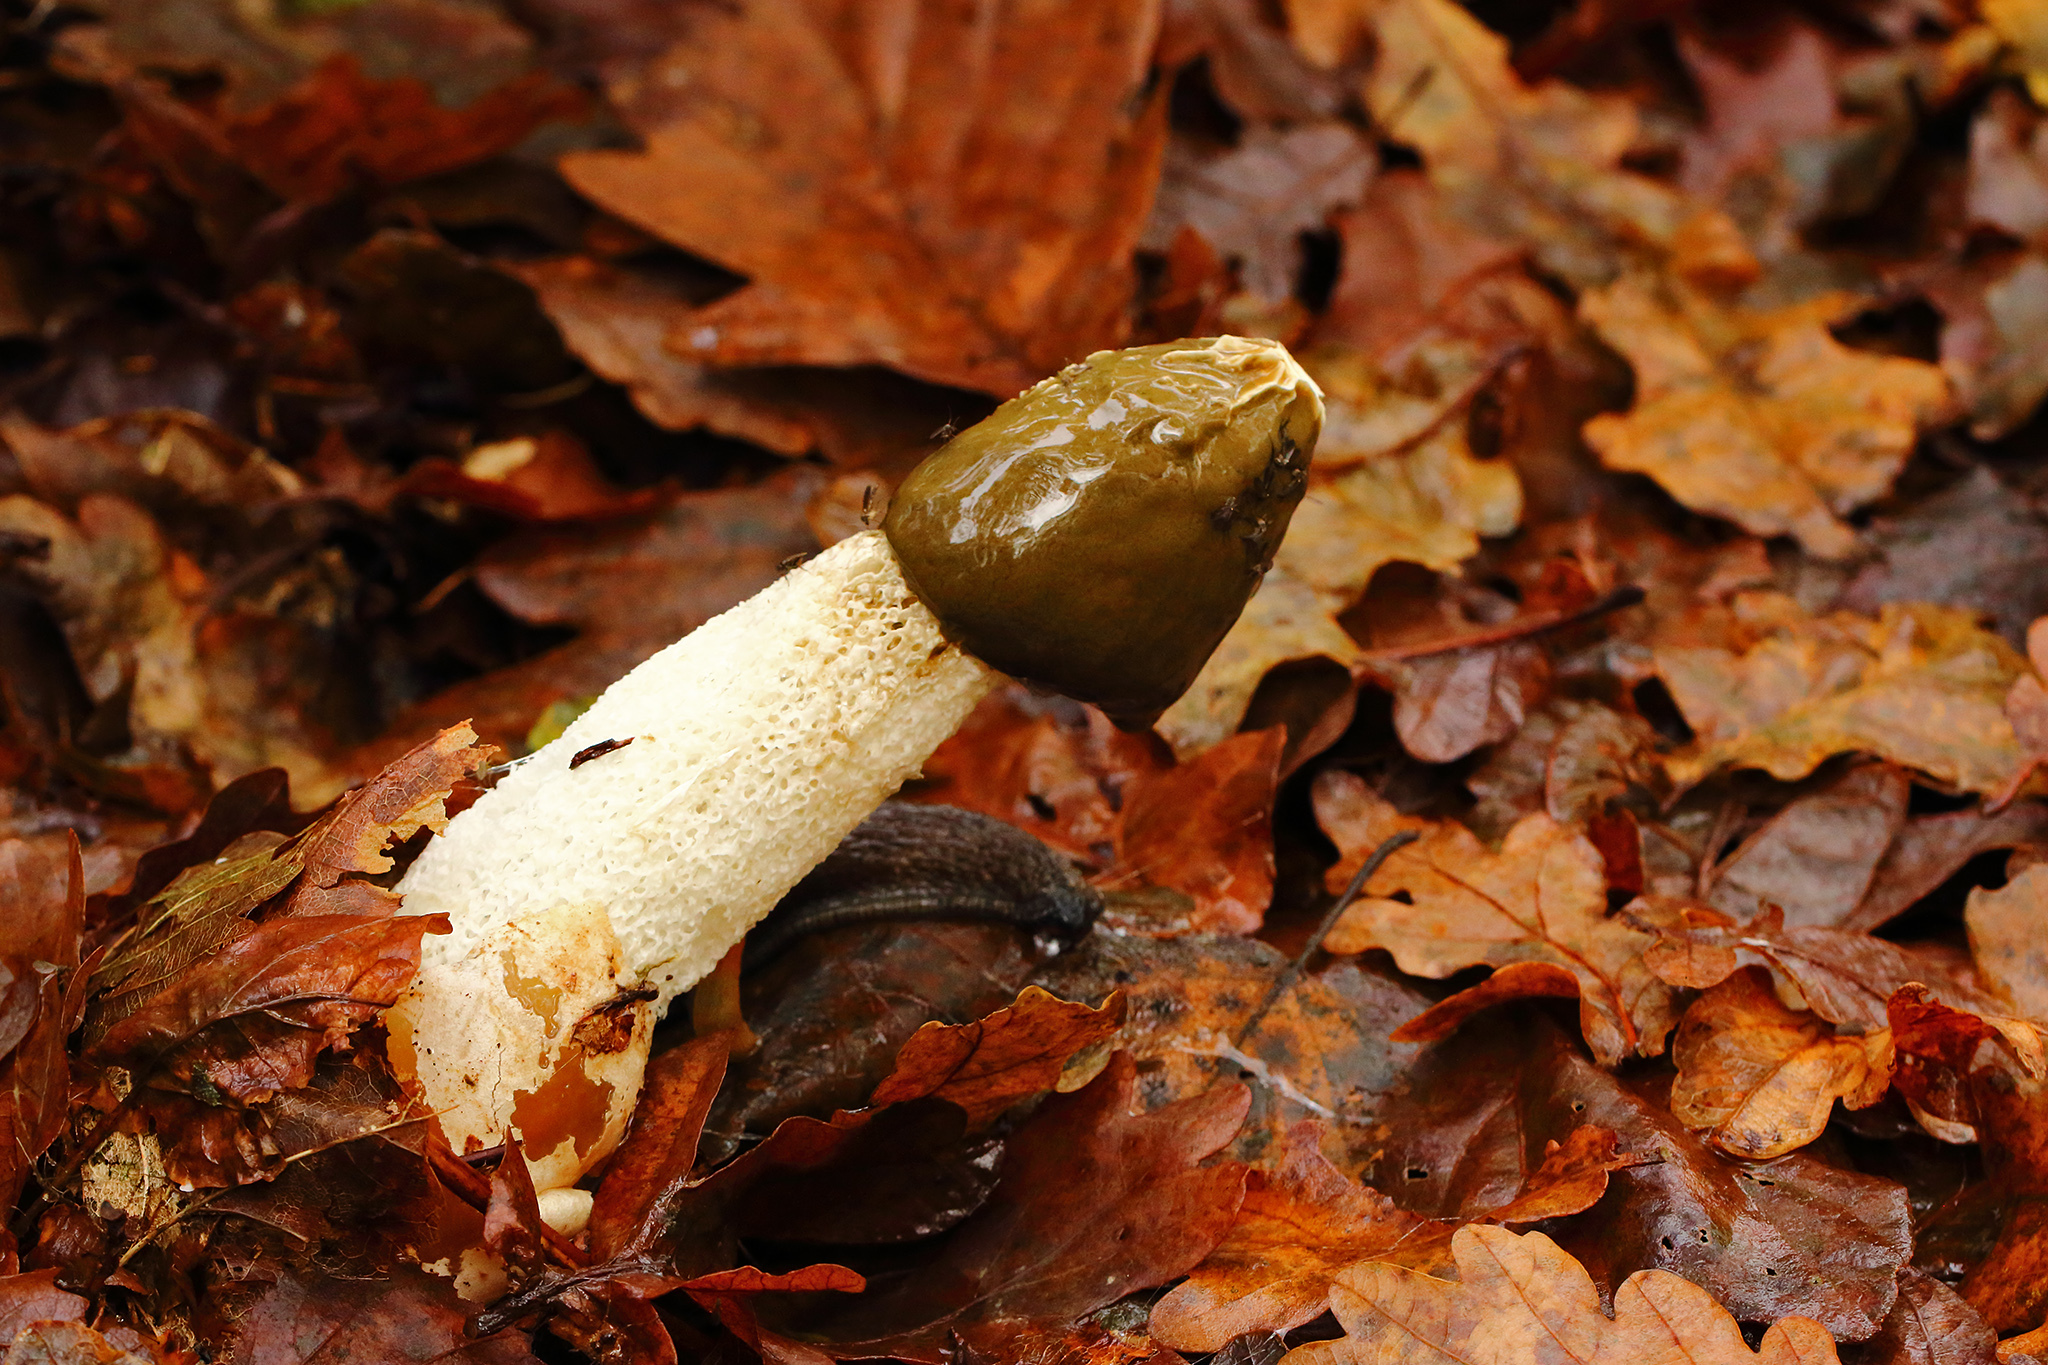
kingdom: Fungi
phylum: Basidiomycota
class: Agaricomycetes
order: Phallales
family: Phallaceae
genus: Phallus
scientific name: Phallus impudicus
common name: Common stinkhorn
